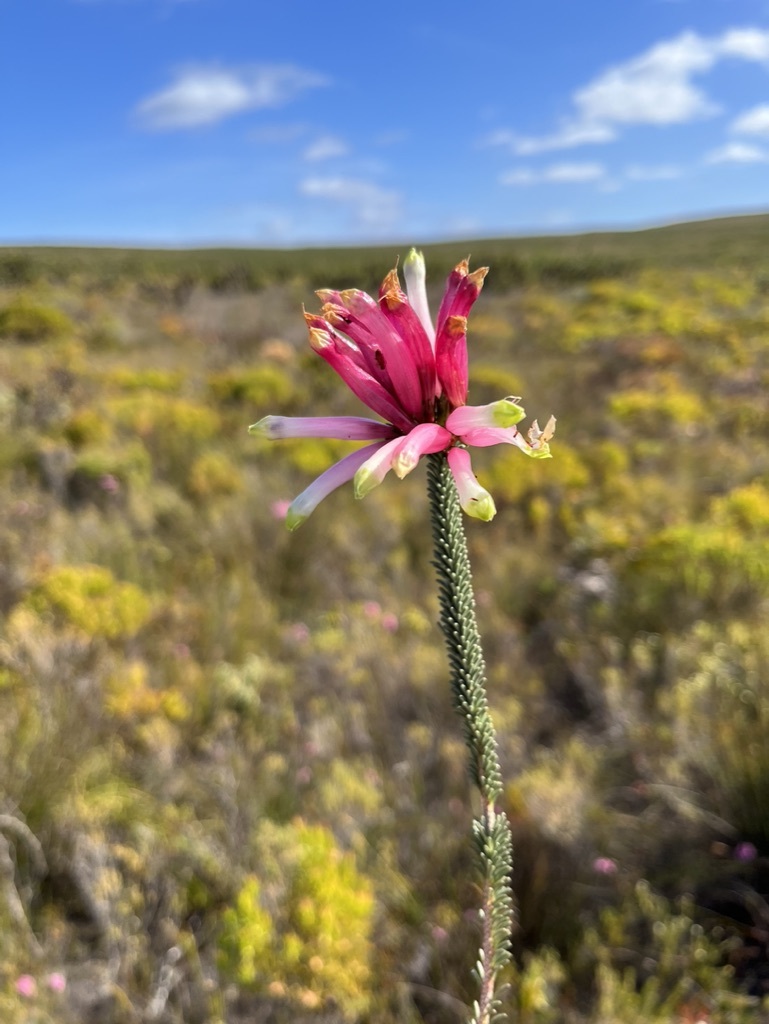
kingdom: Plantae
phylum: Tracheophyta
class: Magnoliopsida
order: Ericales
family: Ericaceae
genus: Erica
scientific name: Erica fascicularis
